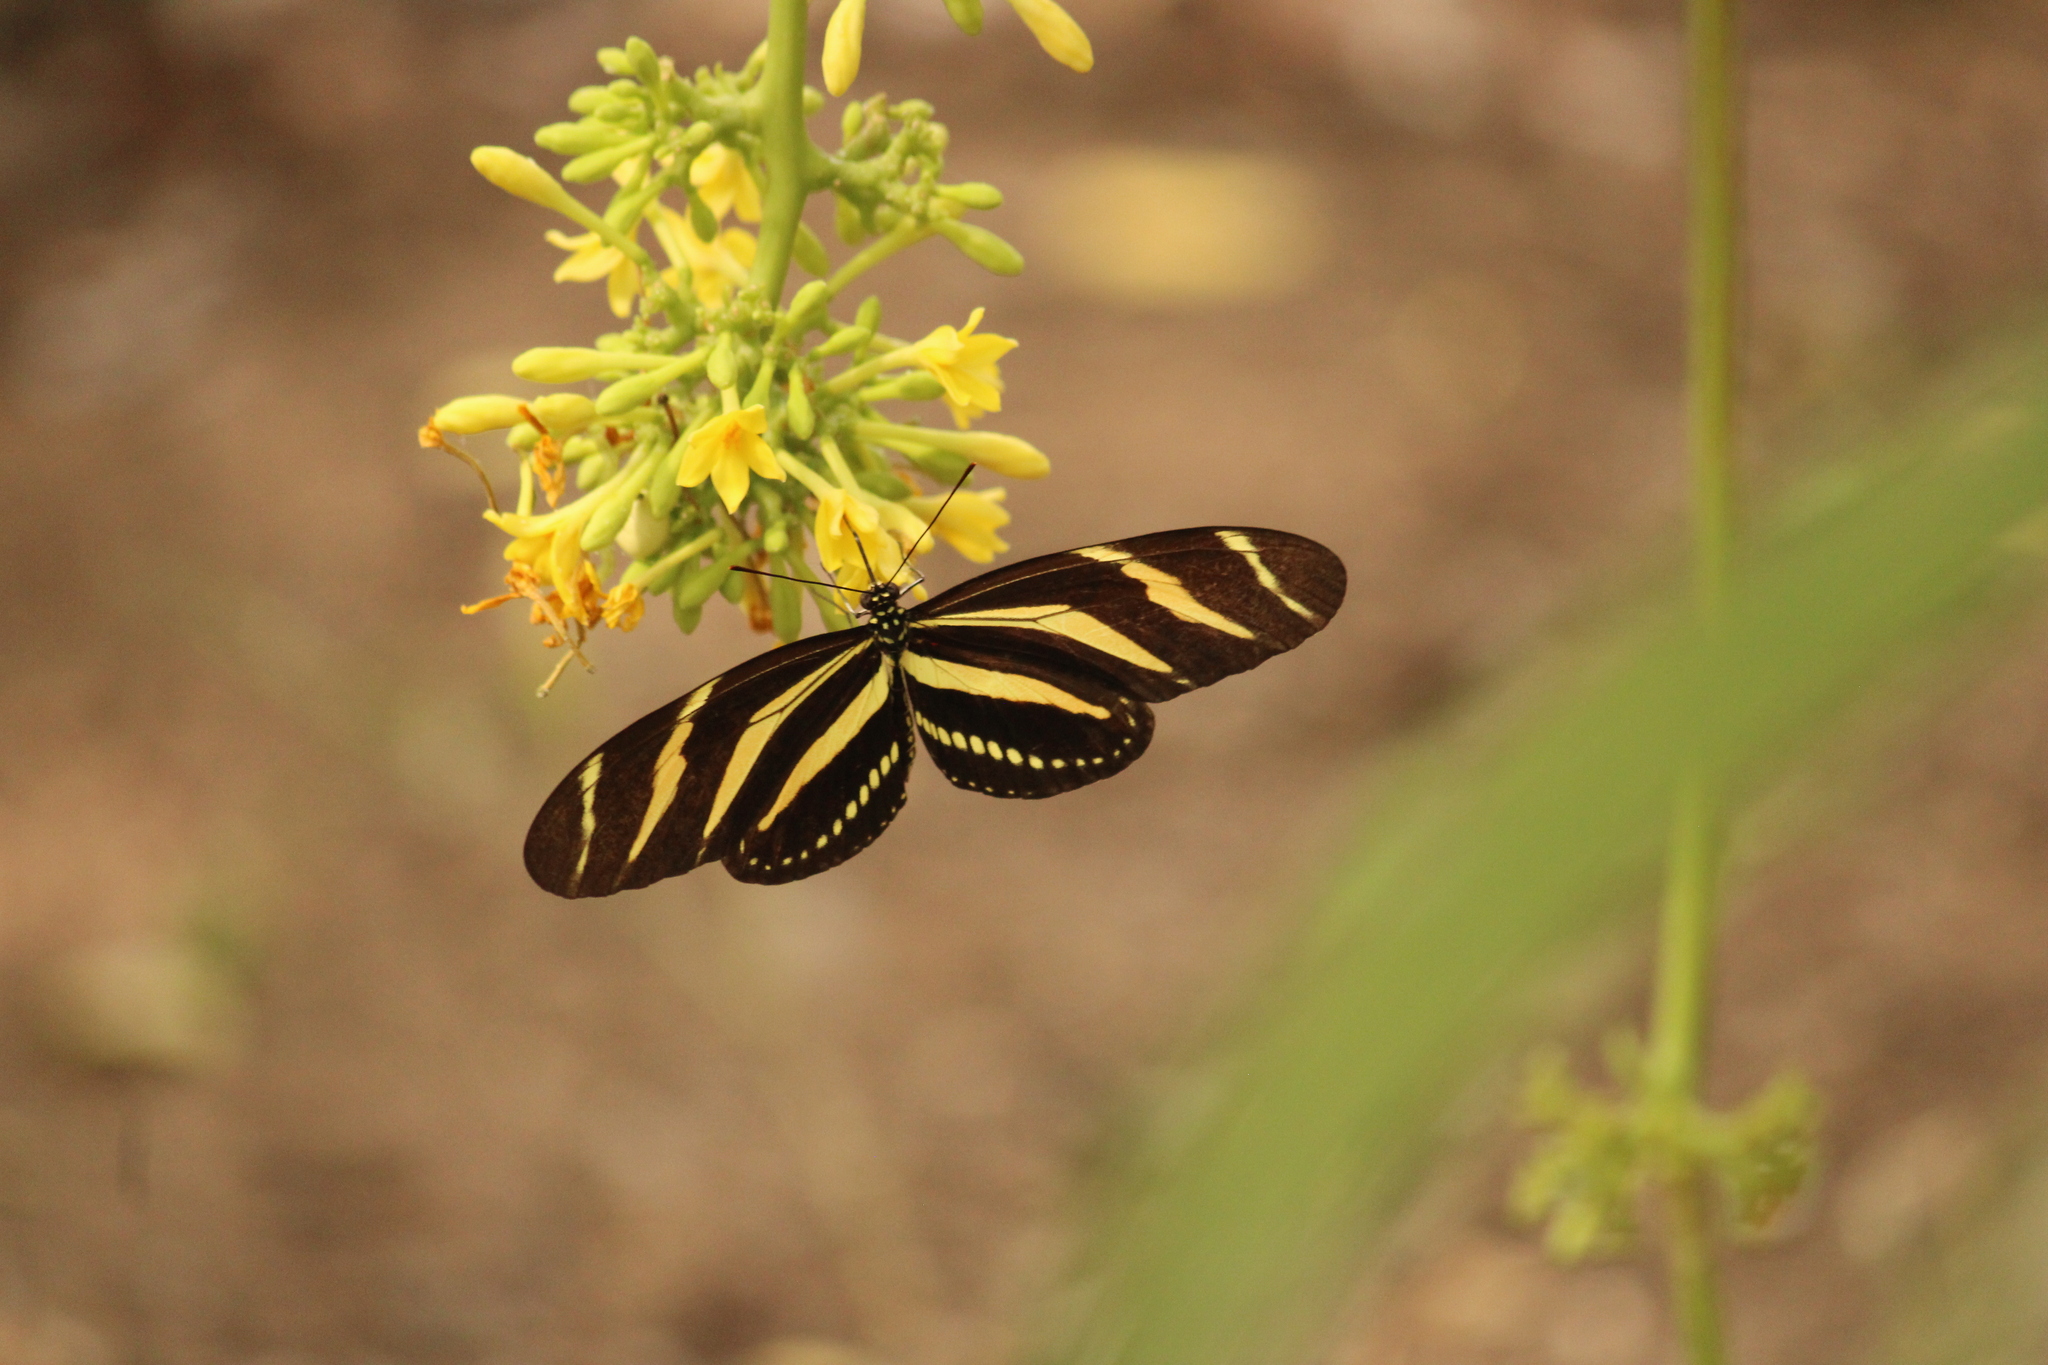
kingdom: Animalia
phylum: Arthropoda
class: Insecta
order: Lepidoptera
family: Nymphalidae
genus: Heliconius
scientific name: Heliconius charithonia
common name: Zebra long wing
